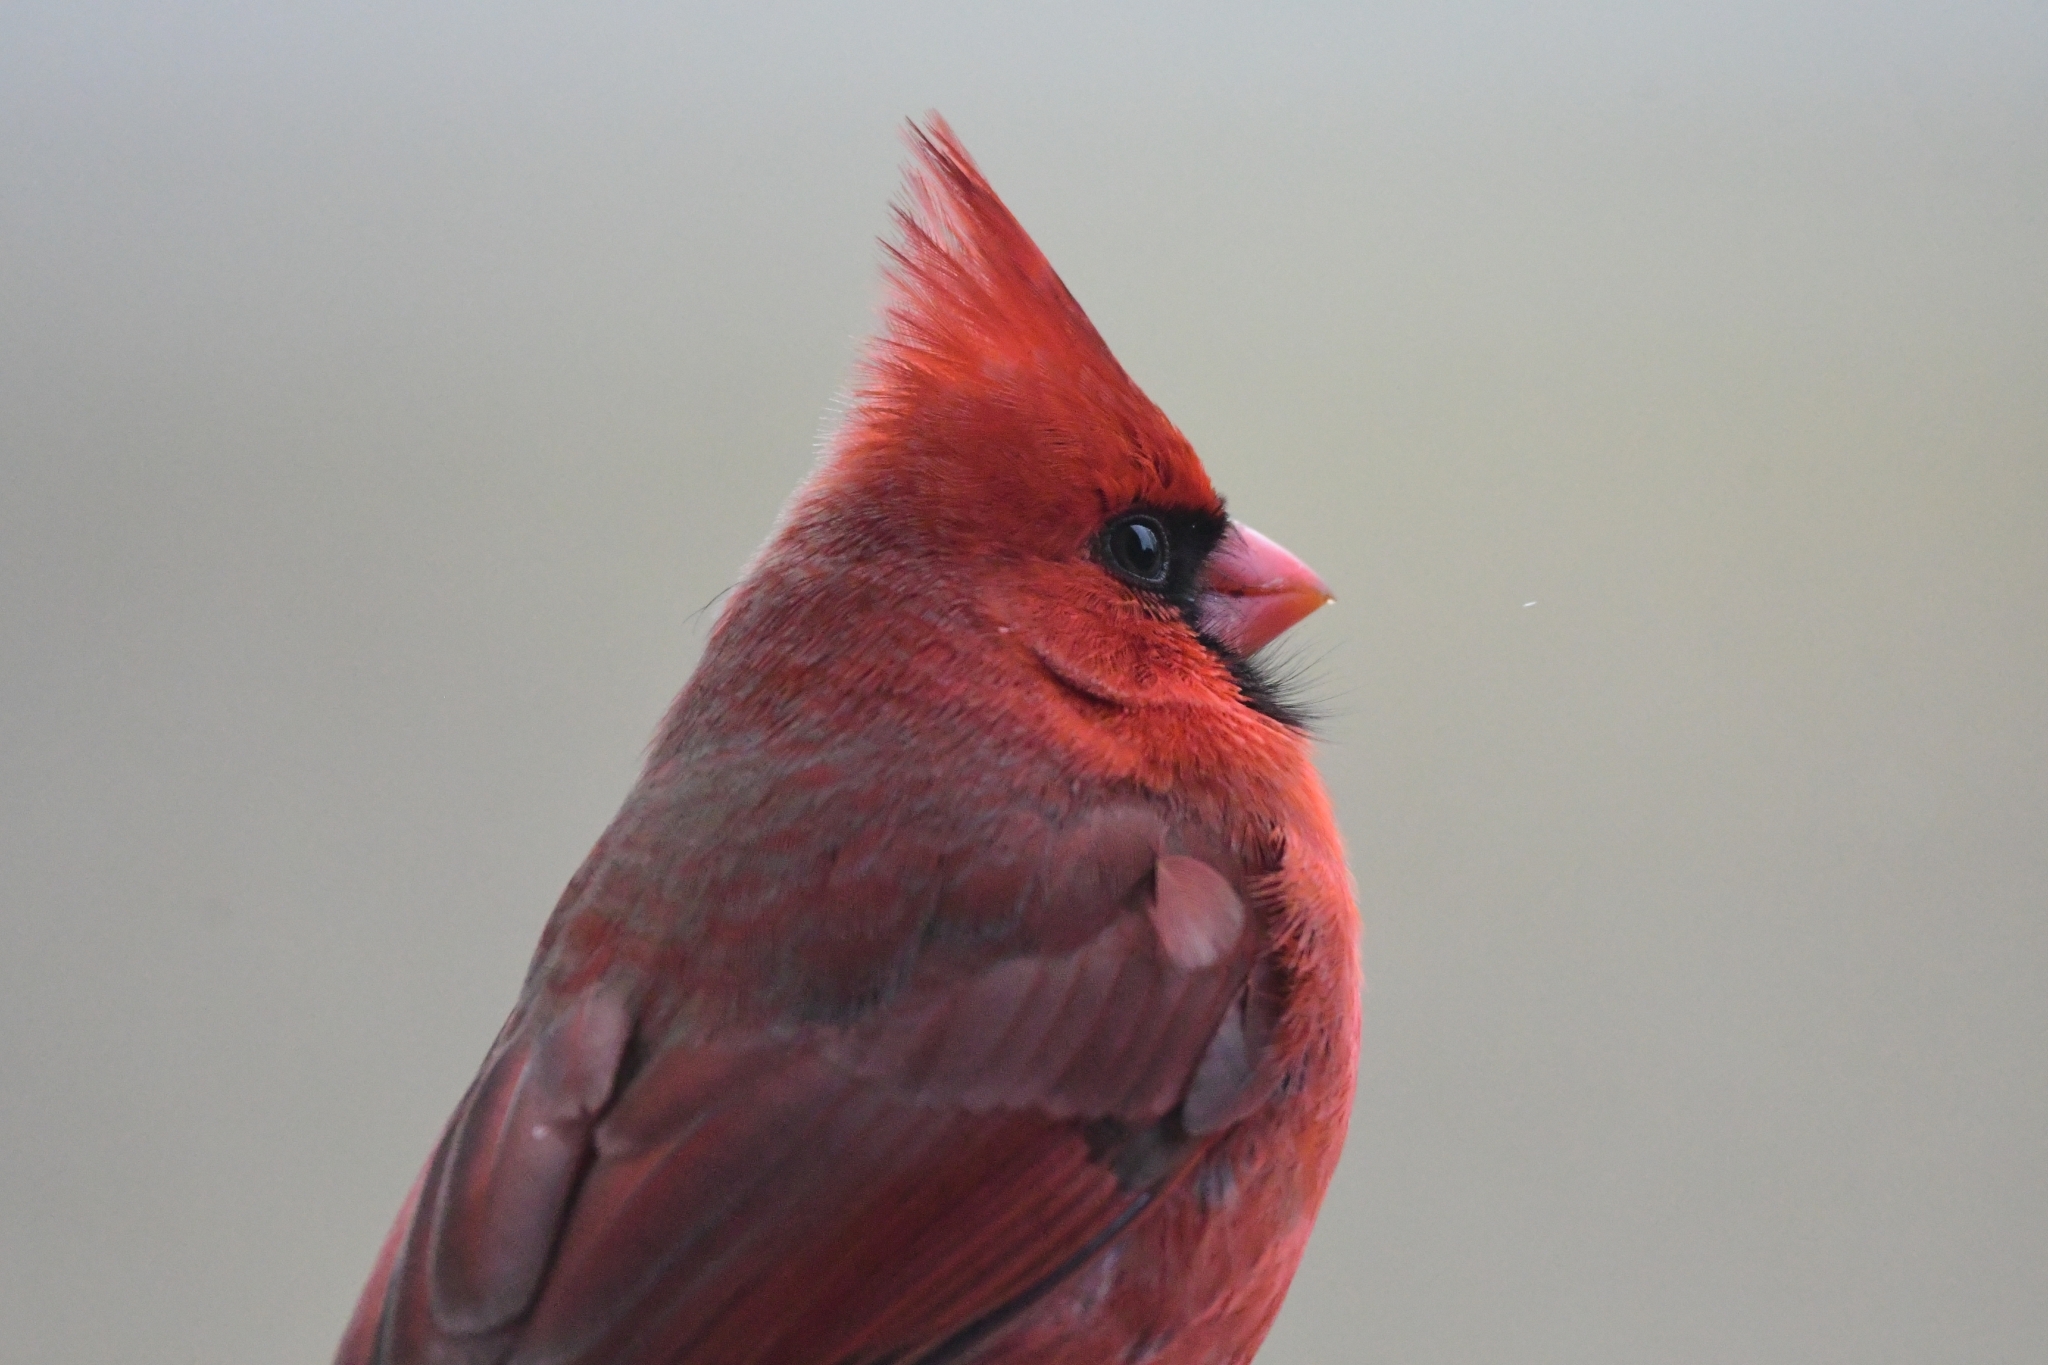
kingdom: Animalia
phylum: Chordata
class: Aves
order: Passeriformes
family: Cardinalidae
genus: Cardinalis
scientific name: Cardinalis cardinalis
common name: Northern cardinal
